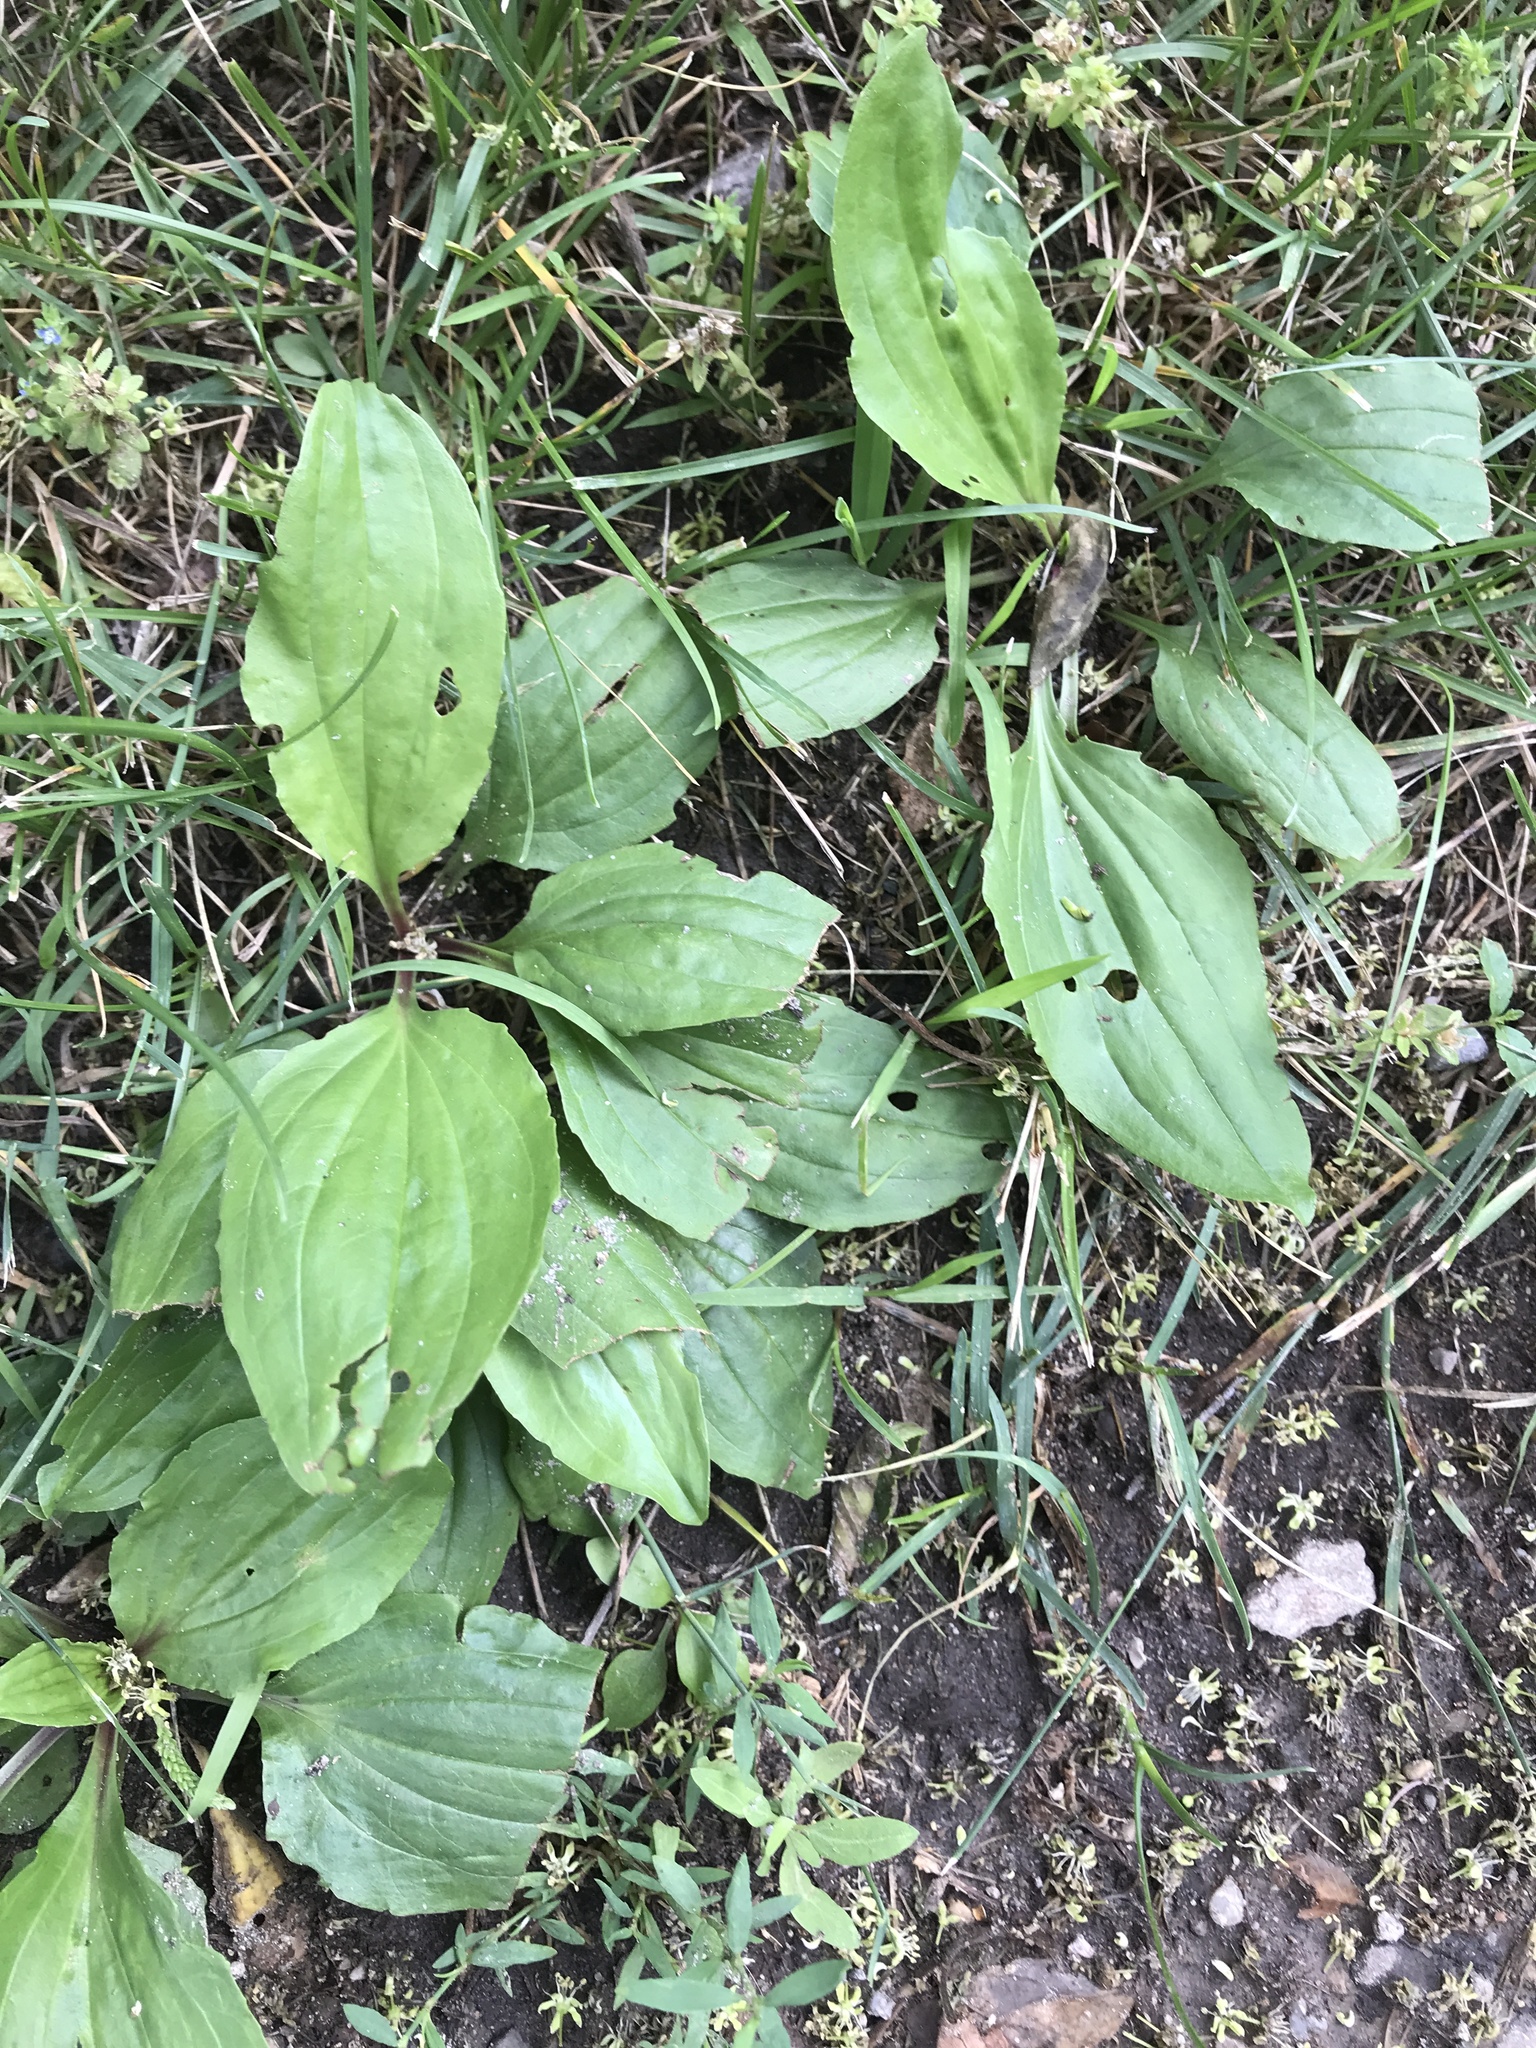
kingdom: Plantae
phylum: Tracheophyta
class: Magnoliopsida
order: Lamiales
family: Plantaginaceae
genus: Plantago
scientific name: Plantago rugelii
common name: American plantain
